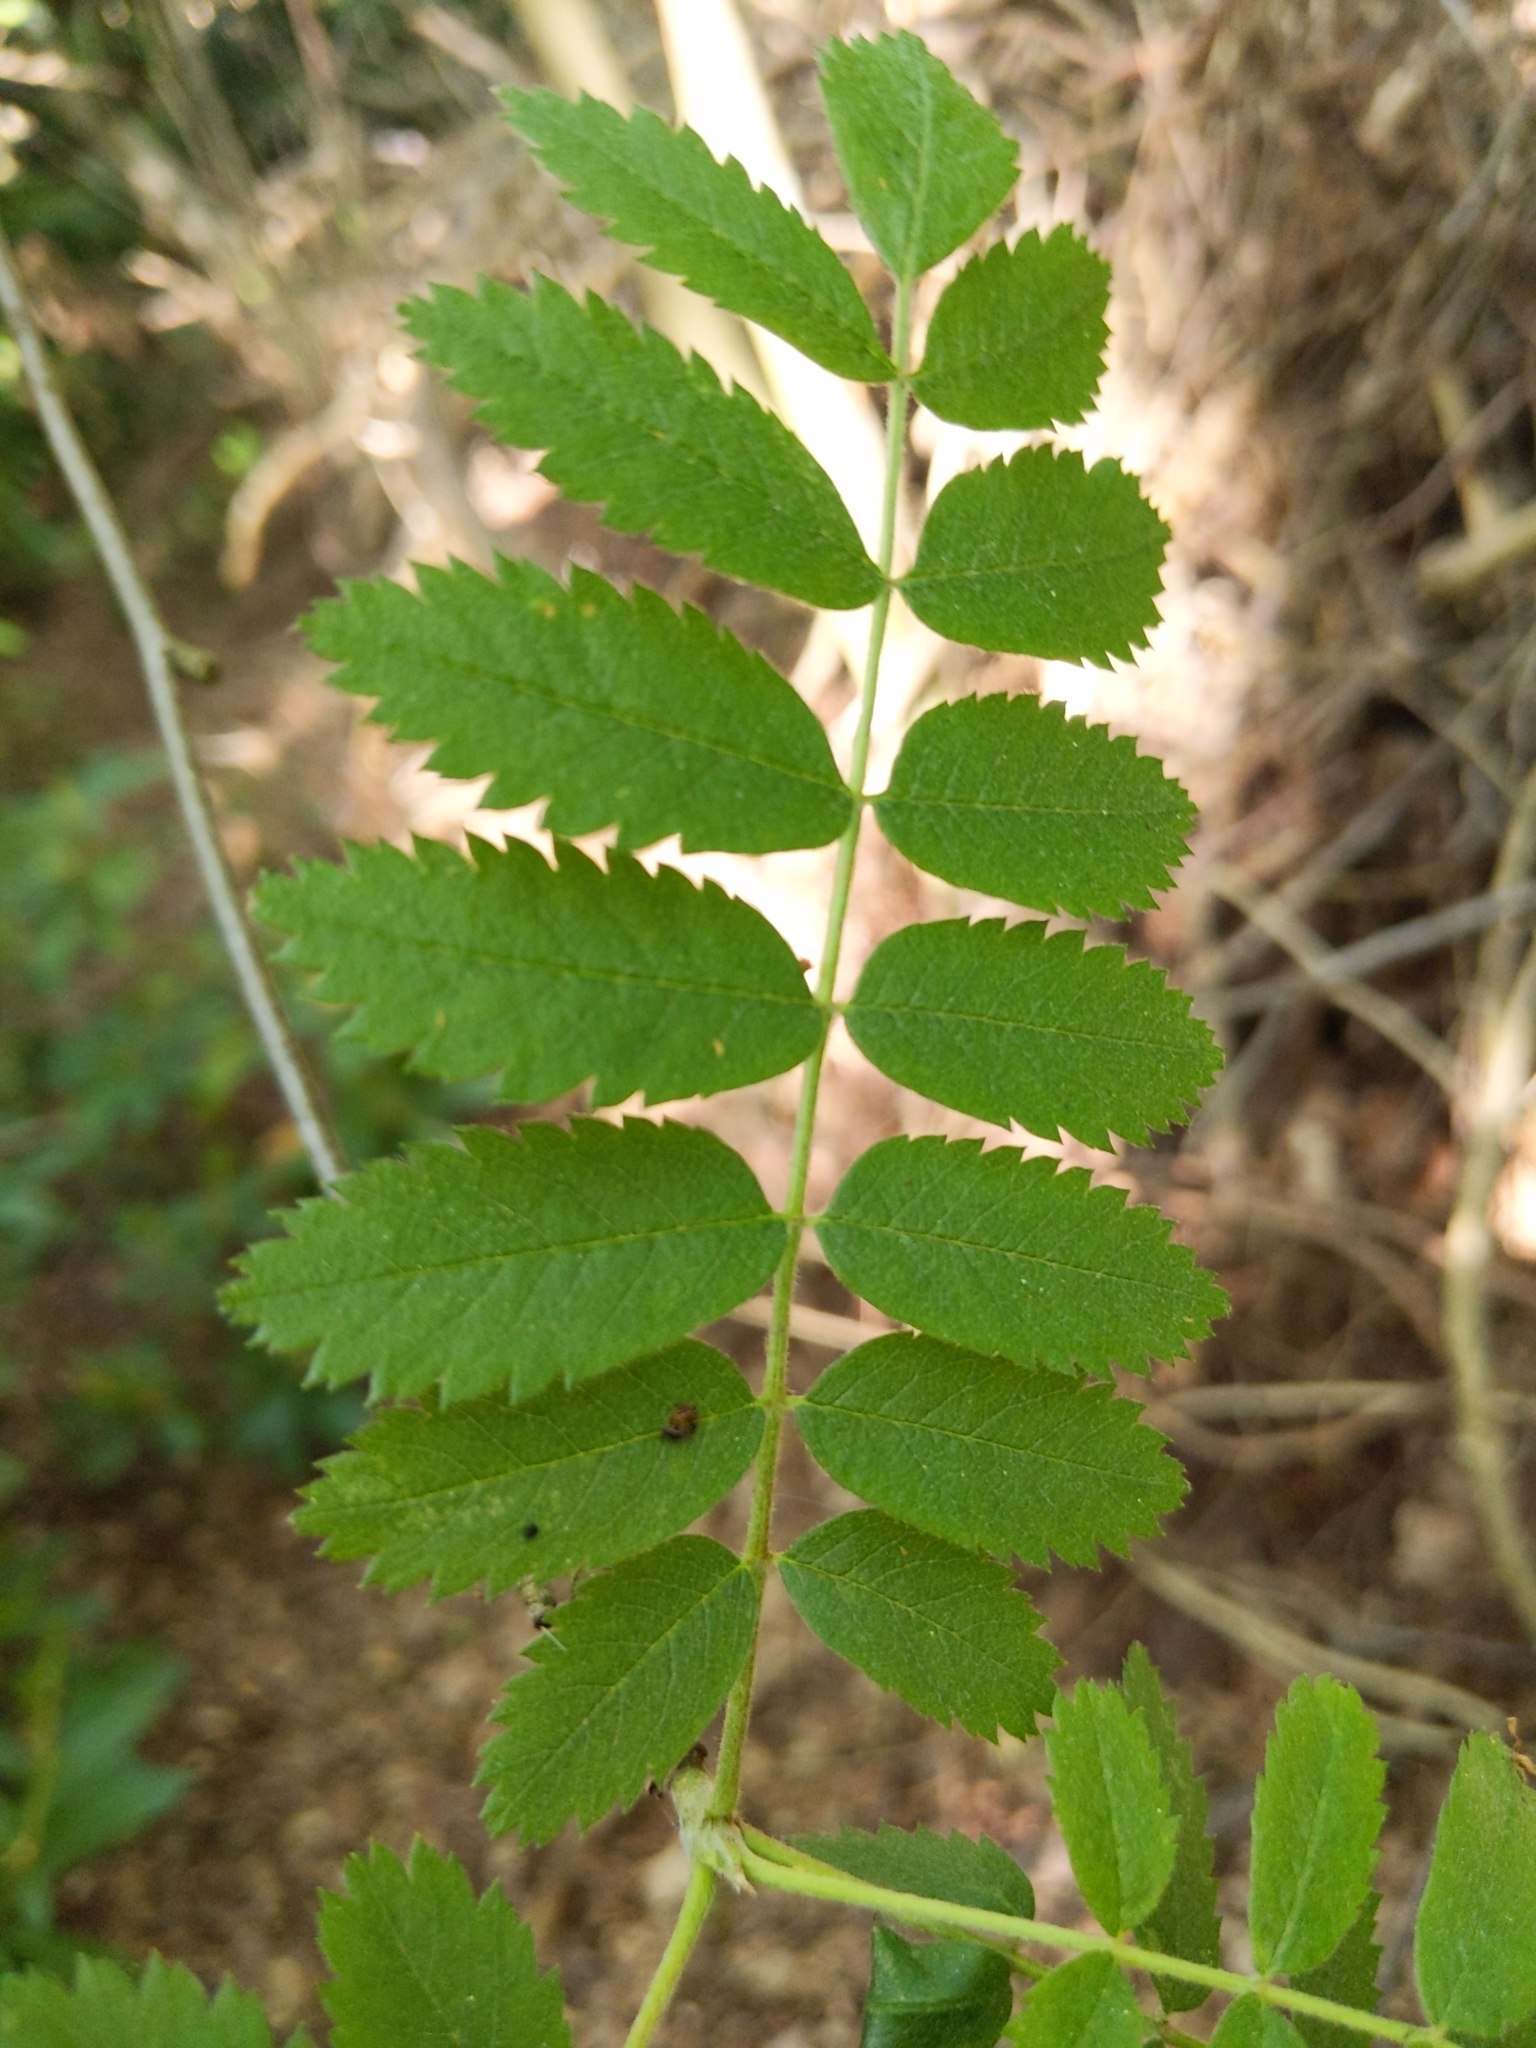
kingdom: Plantae
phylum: Tracheophyta
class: Magnoliopsida
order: Rosales
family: Rosaceae
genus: Sorbus
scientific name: Sorbus aucuparia
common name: Rowan
